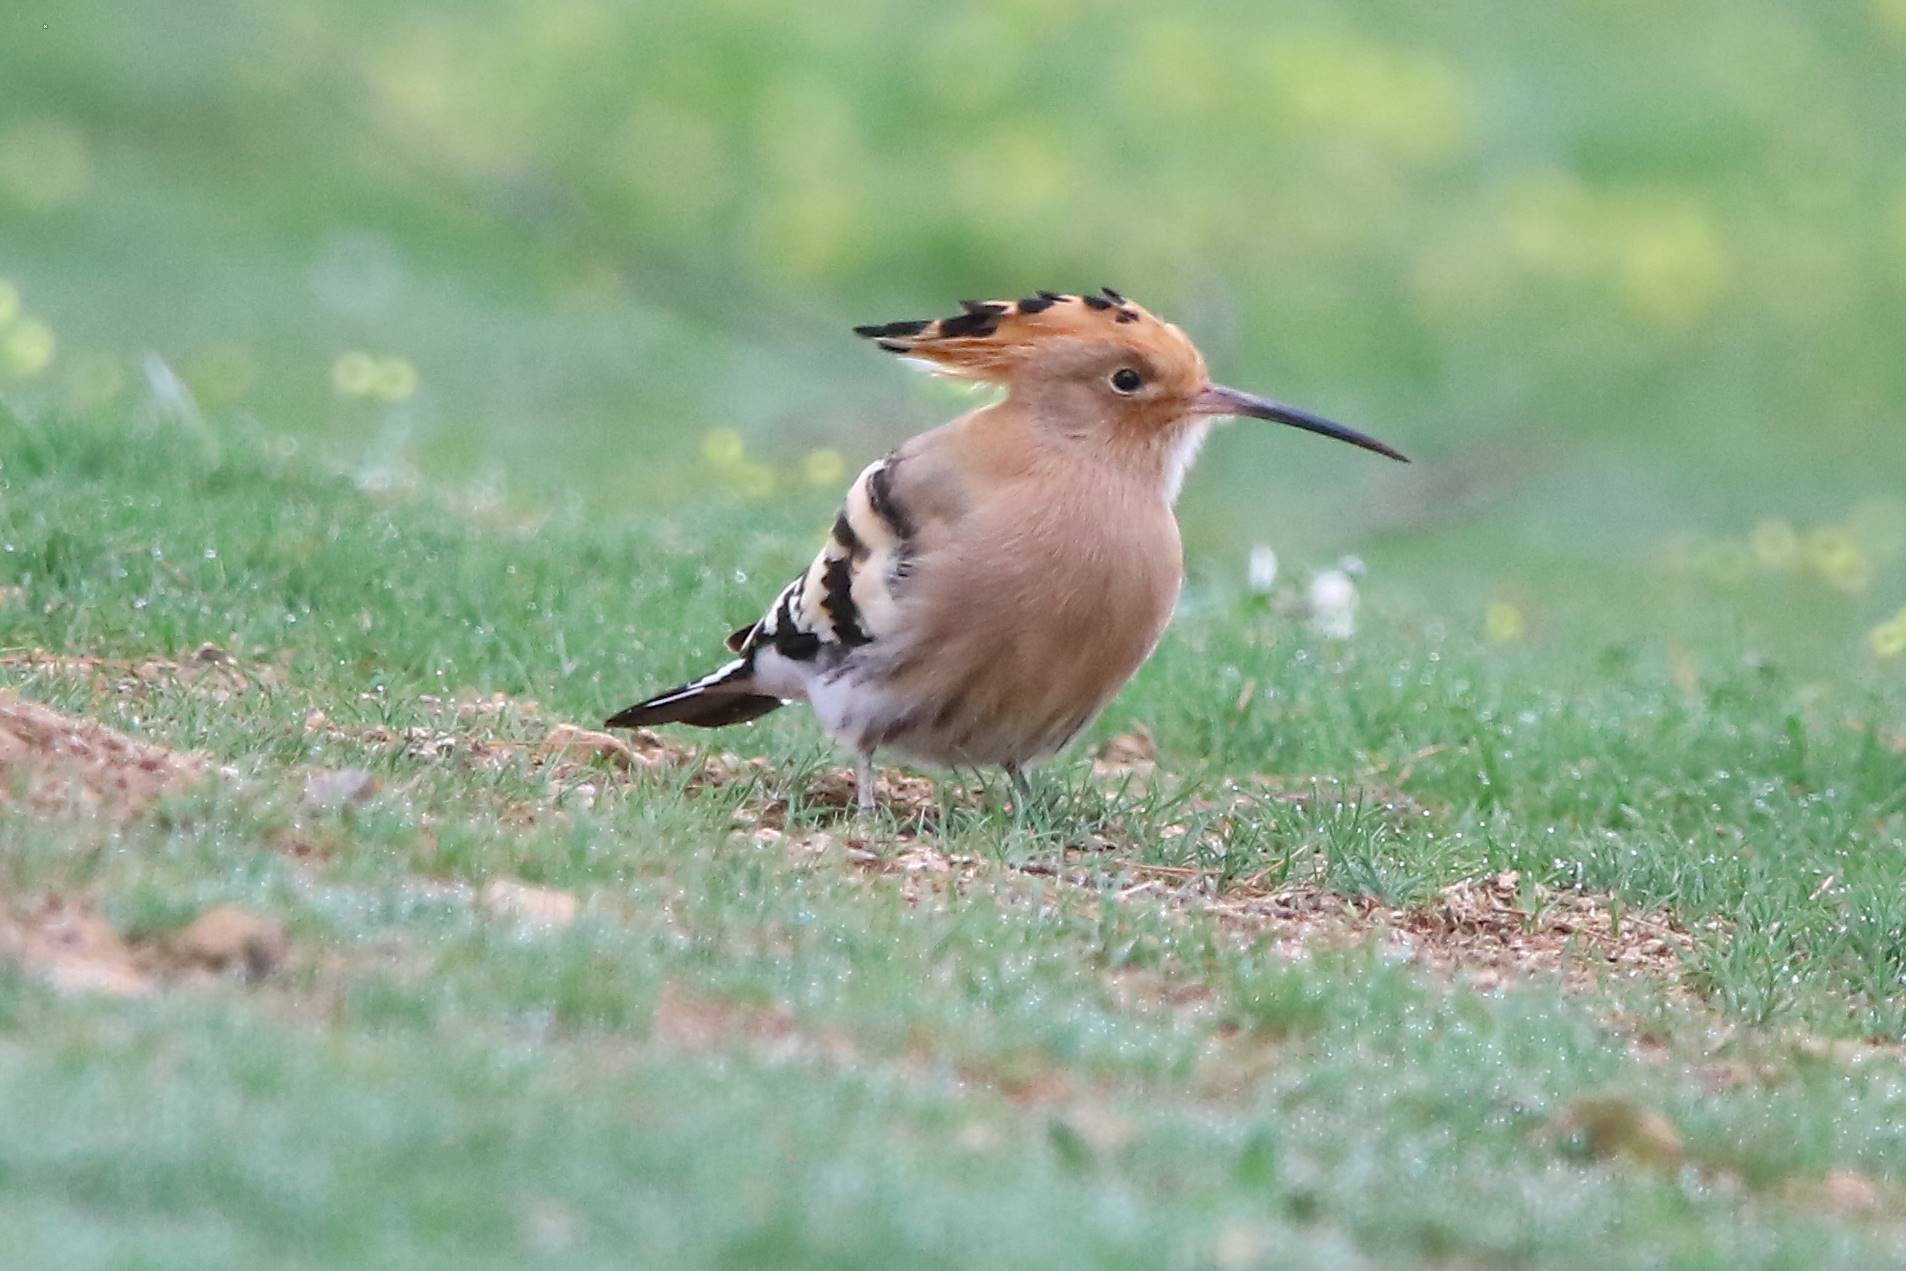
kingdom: Animalia
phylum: Chordata
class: Aves
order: Bucerotiformes
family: Upupidae
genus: Upupa
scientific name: Upupa epops
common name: Eurasian hoopoe
